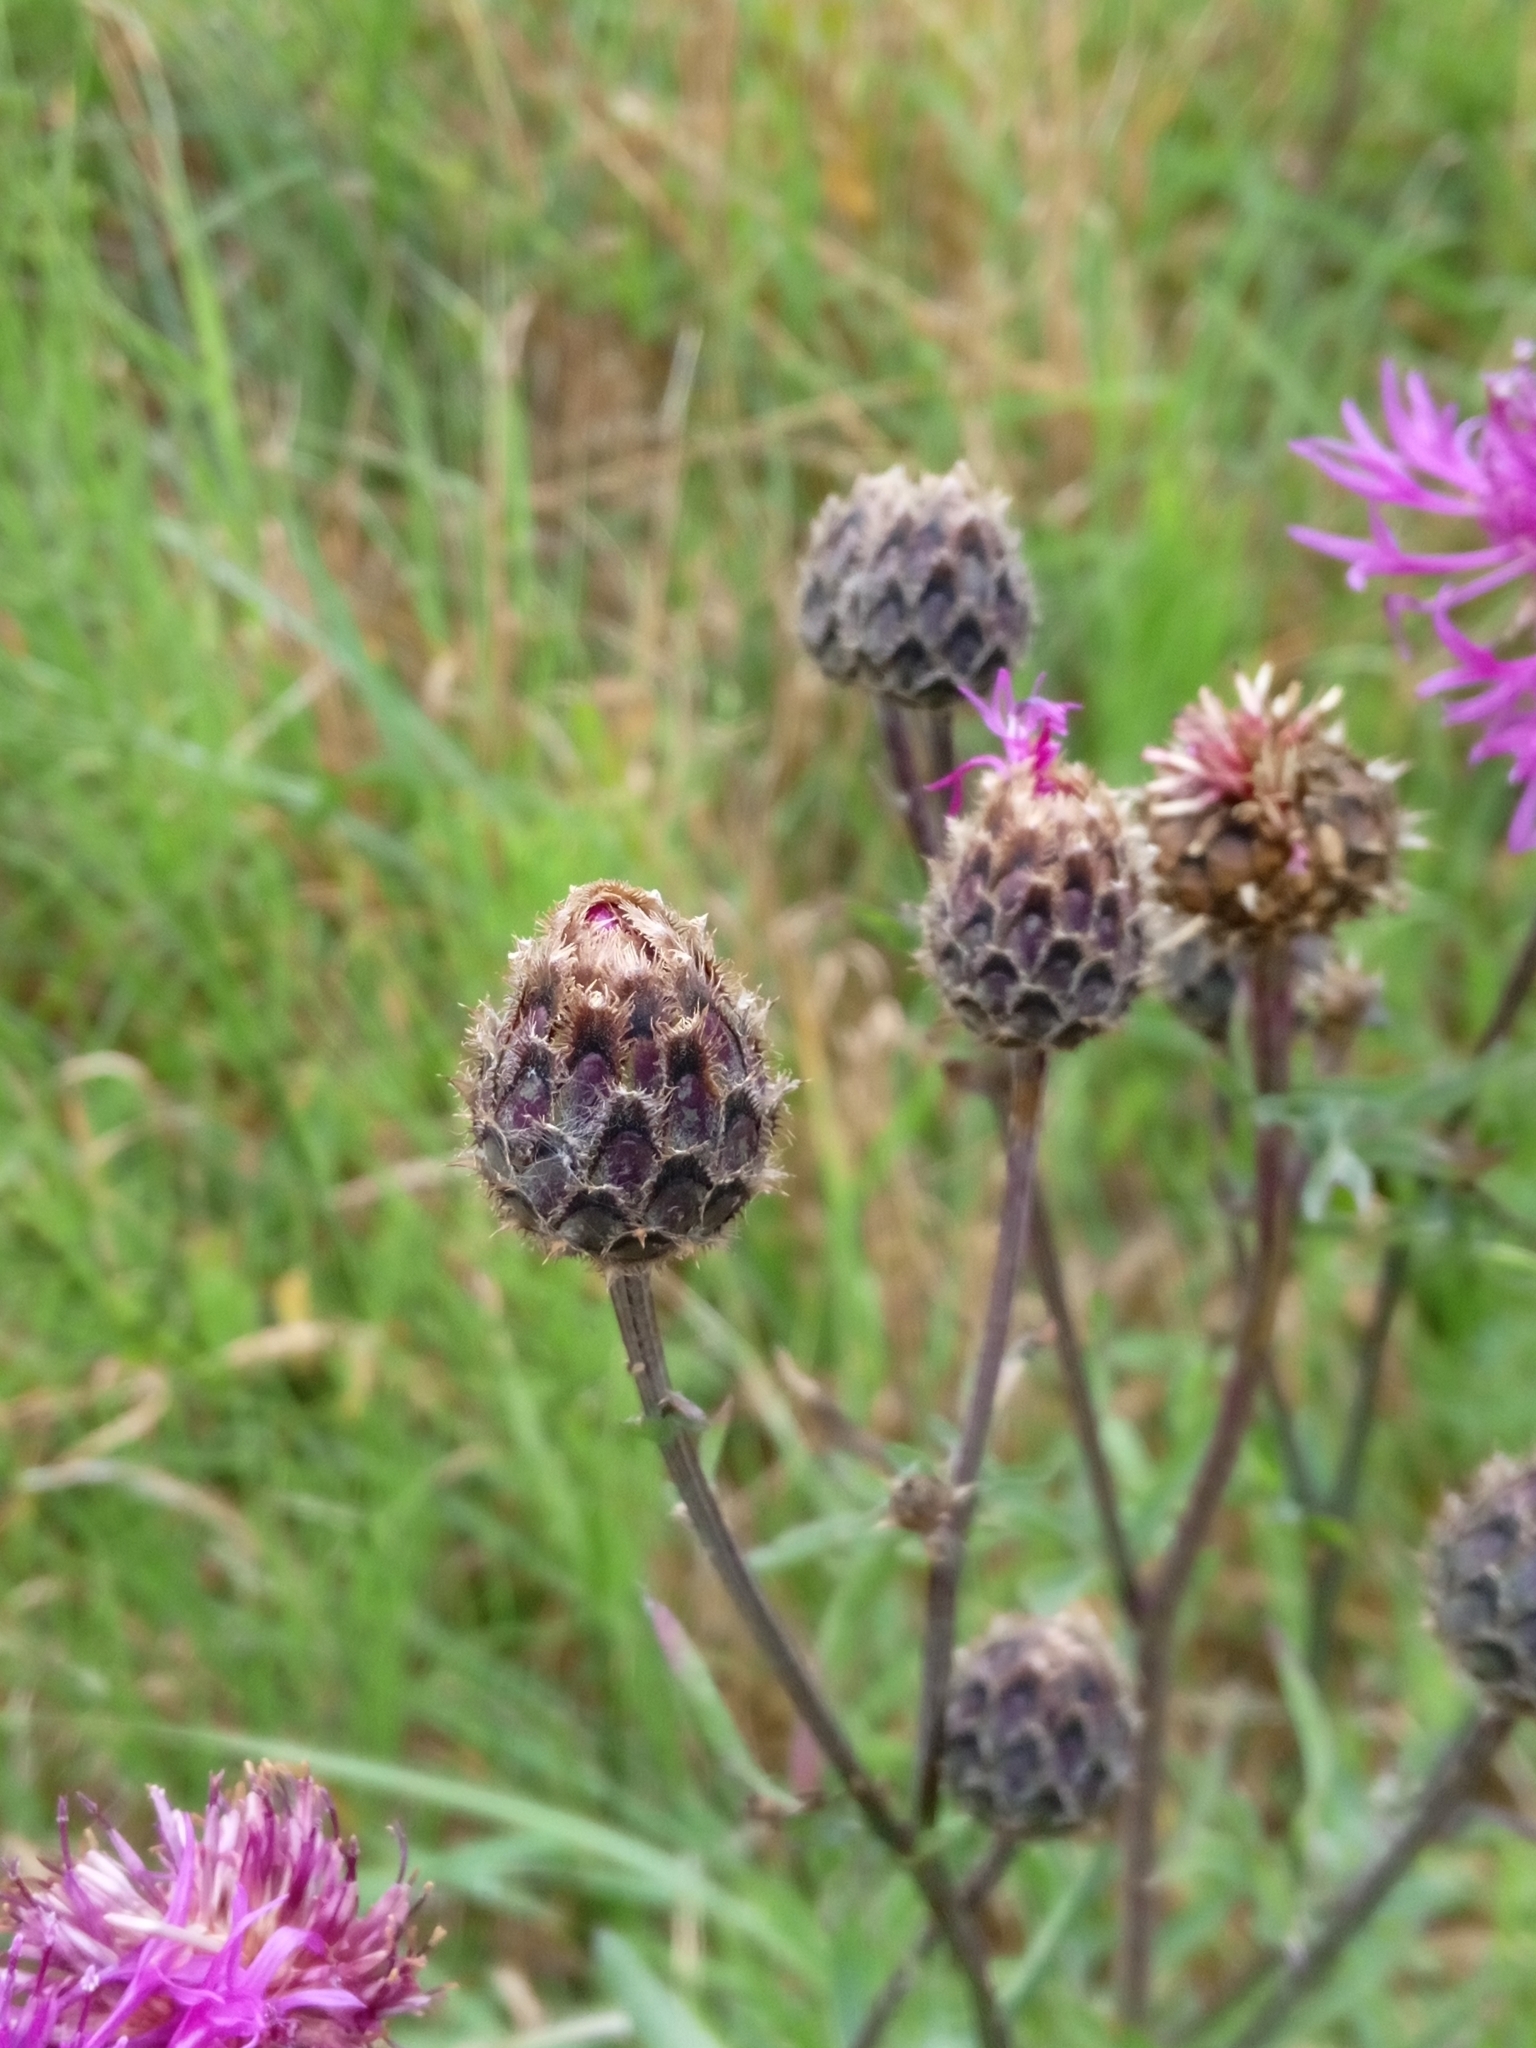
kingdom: Plantae
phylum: Tracheophyta
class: Magnoliopsida
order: Asterales
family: Asteraceae
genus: Centaurea
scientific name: Centaurea scabiosa
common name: Greater knapweed
